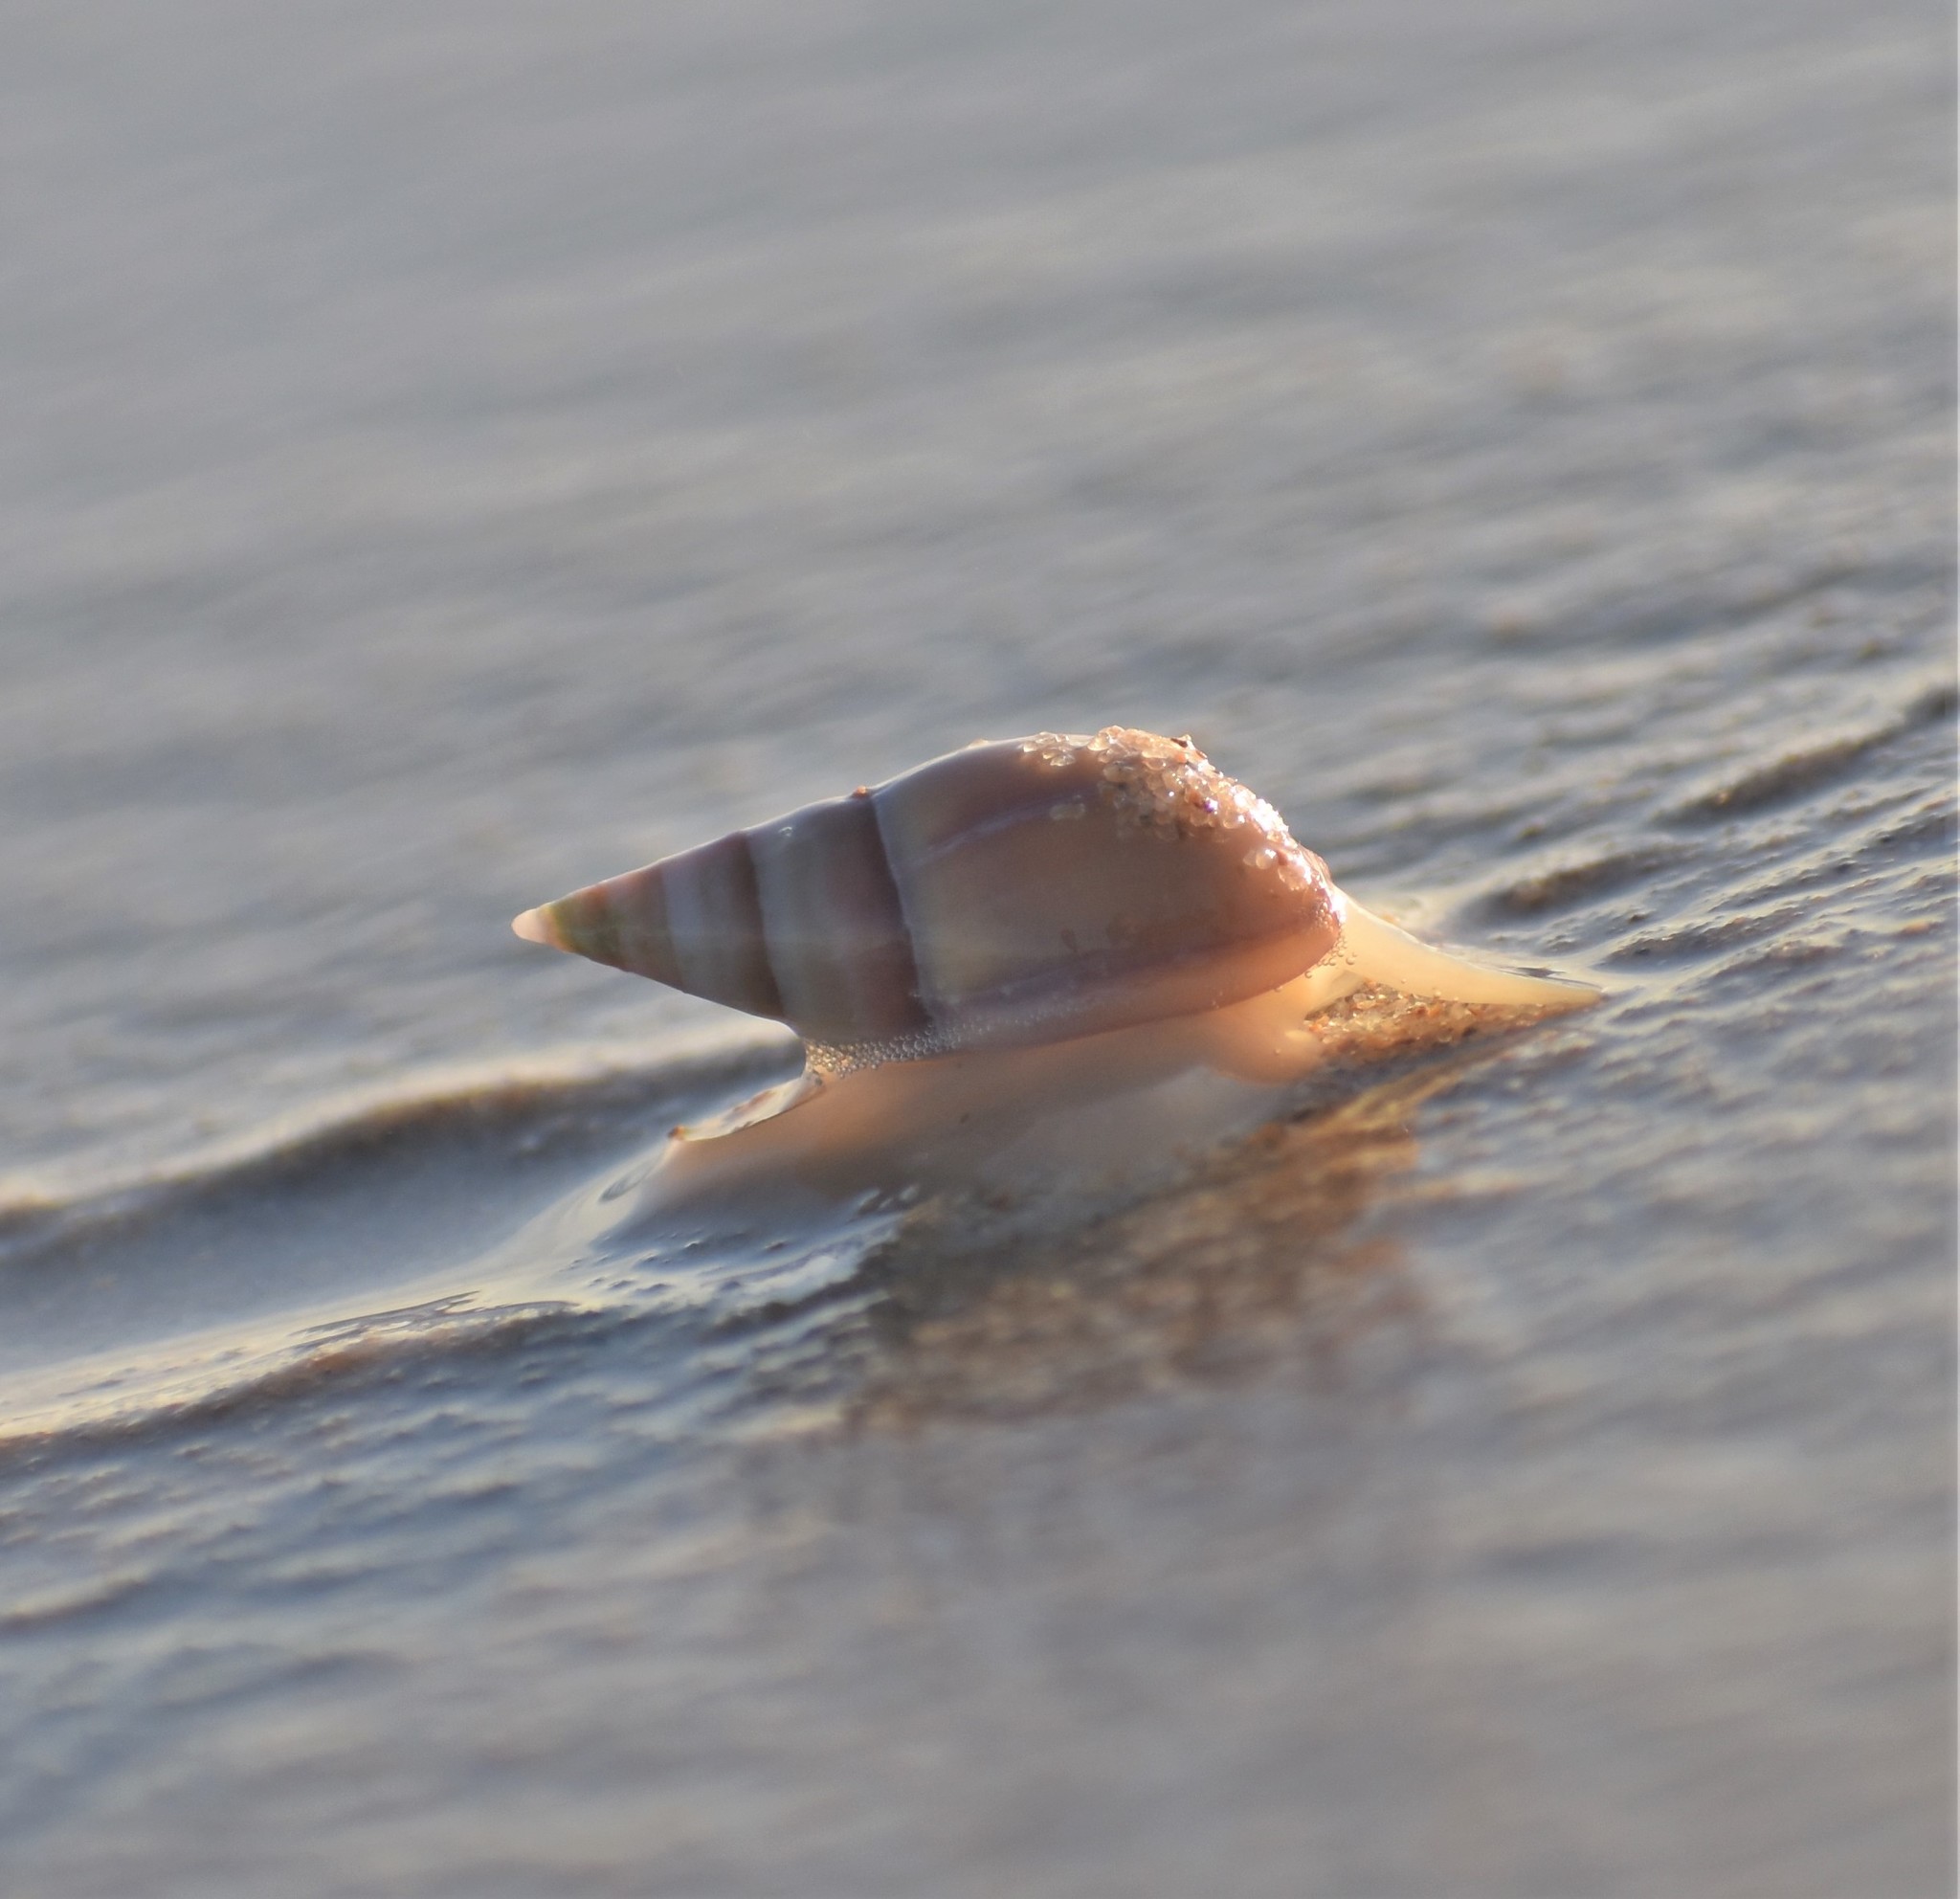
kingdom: Animalia
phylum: Mollusca
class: Gastropoda
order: Neogastropoda
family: Nassariidae
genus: Bullia
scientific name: Bullia rhodostoma
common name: Smooth plough shell
